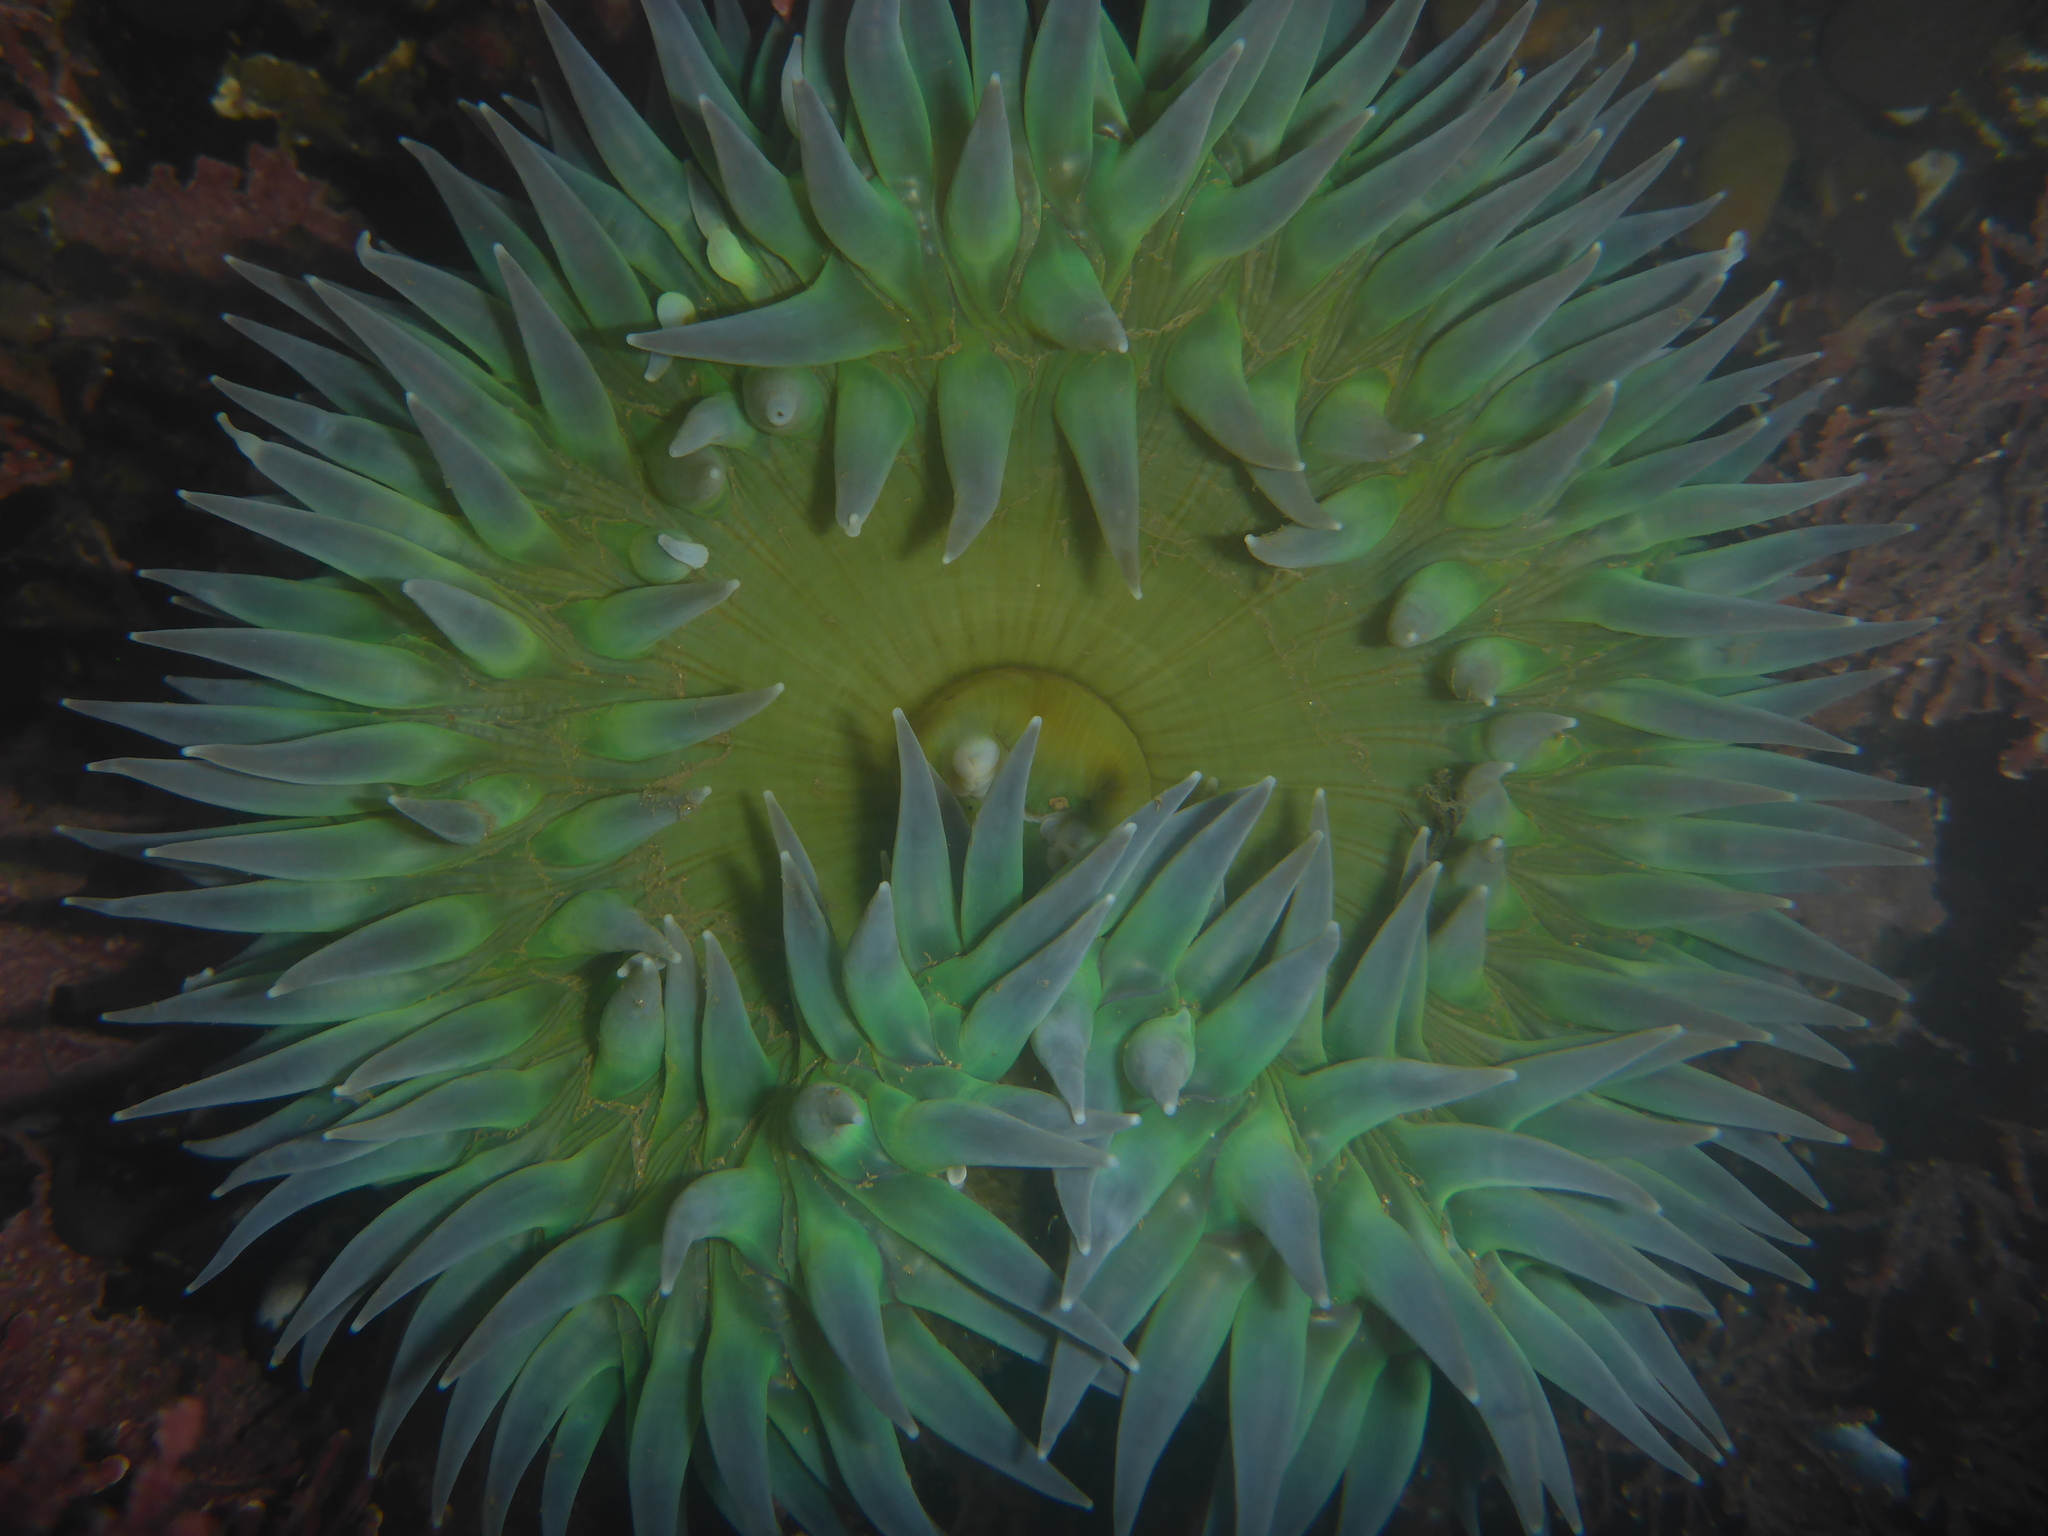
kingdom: Animalia
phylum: Cnidaria
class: Anthozoa
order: Actiniaria
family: Actiniidae
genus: Anthopleura
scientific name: Anthopleura xanthogrammica
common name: Giant green anemone
